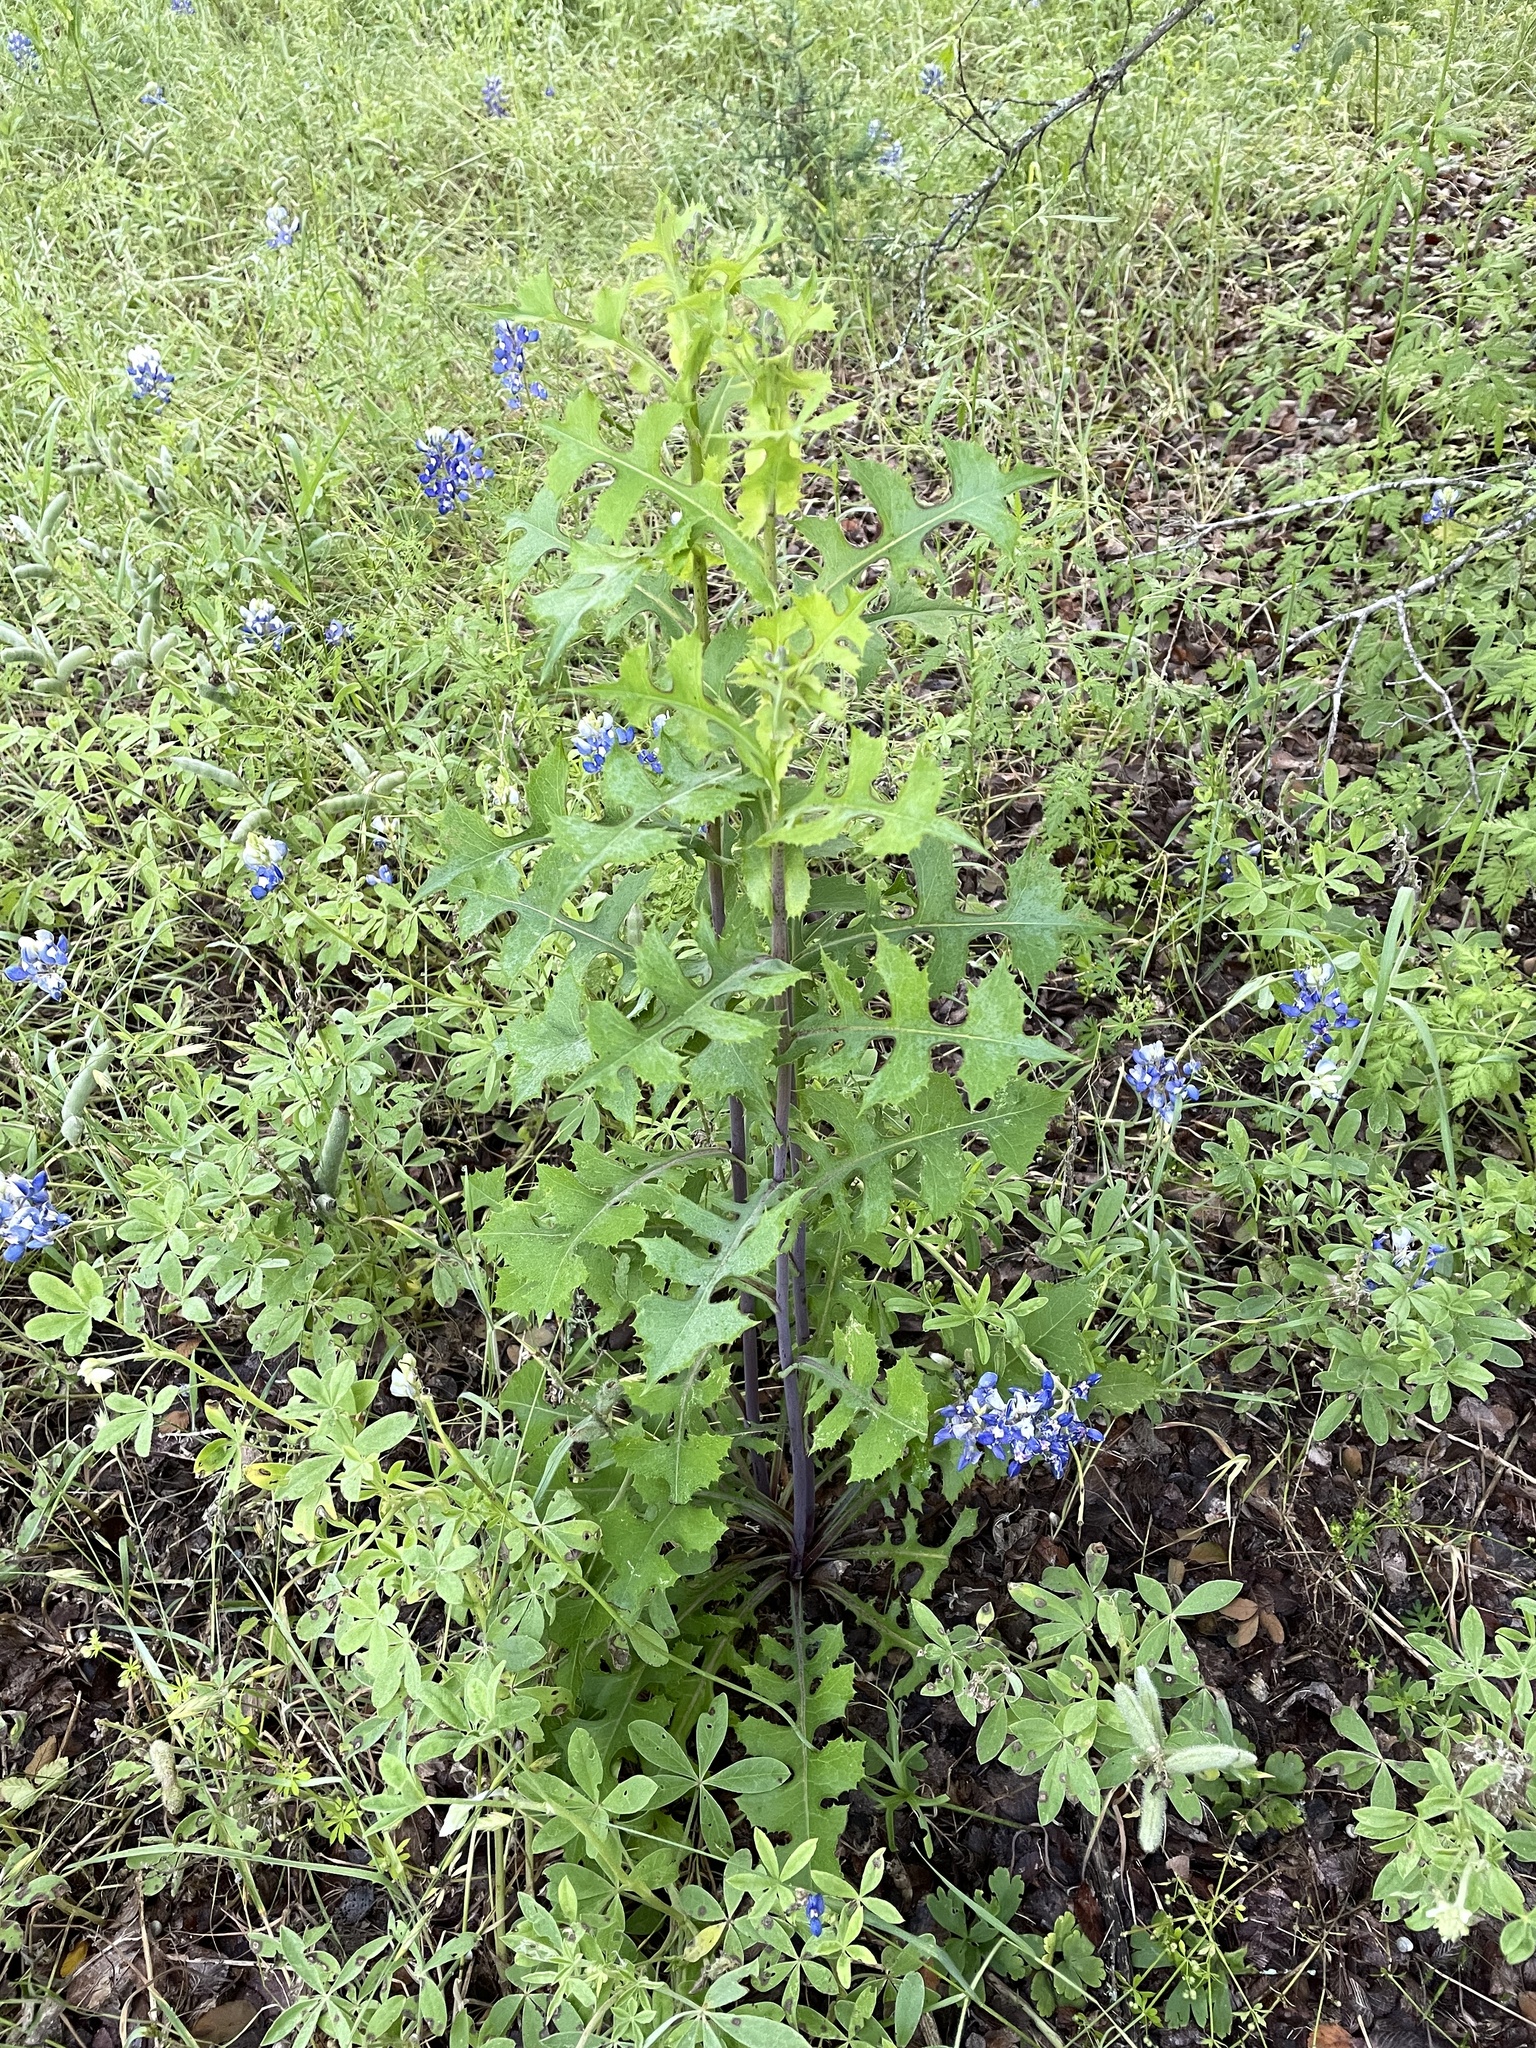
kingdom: Plantae
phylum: Tracheophyta
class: Magnoliopsida
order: Asterales
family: Asteraceae
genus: Lactuca
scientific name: Lactuca ludoviciana
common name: Louisiana lettuce
